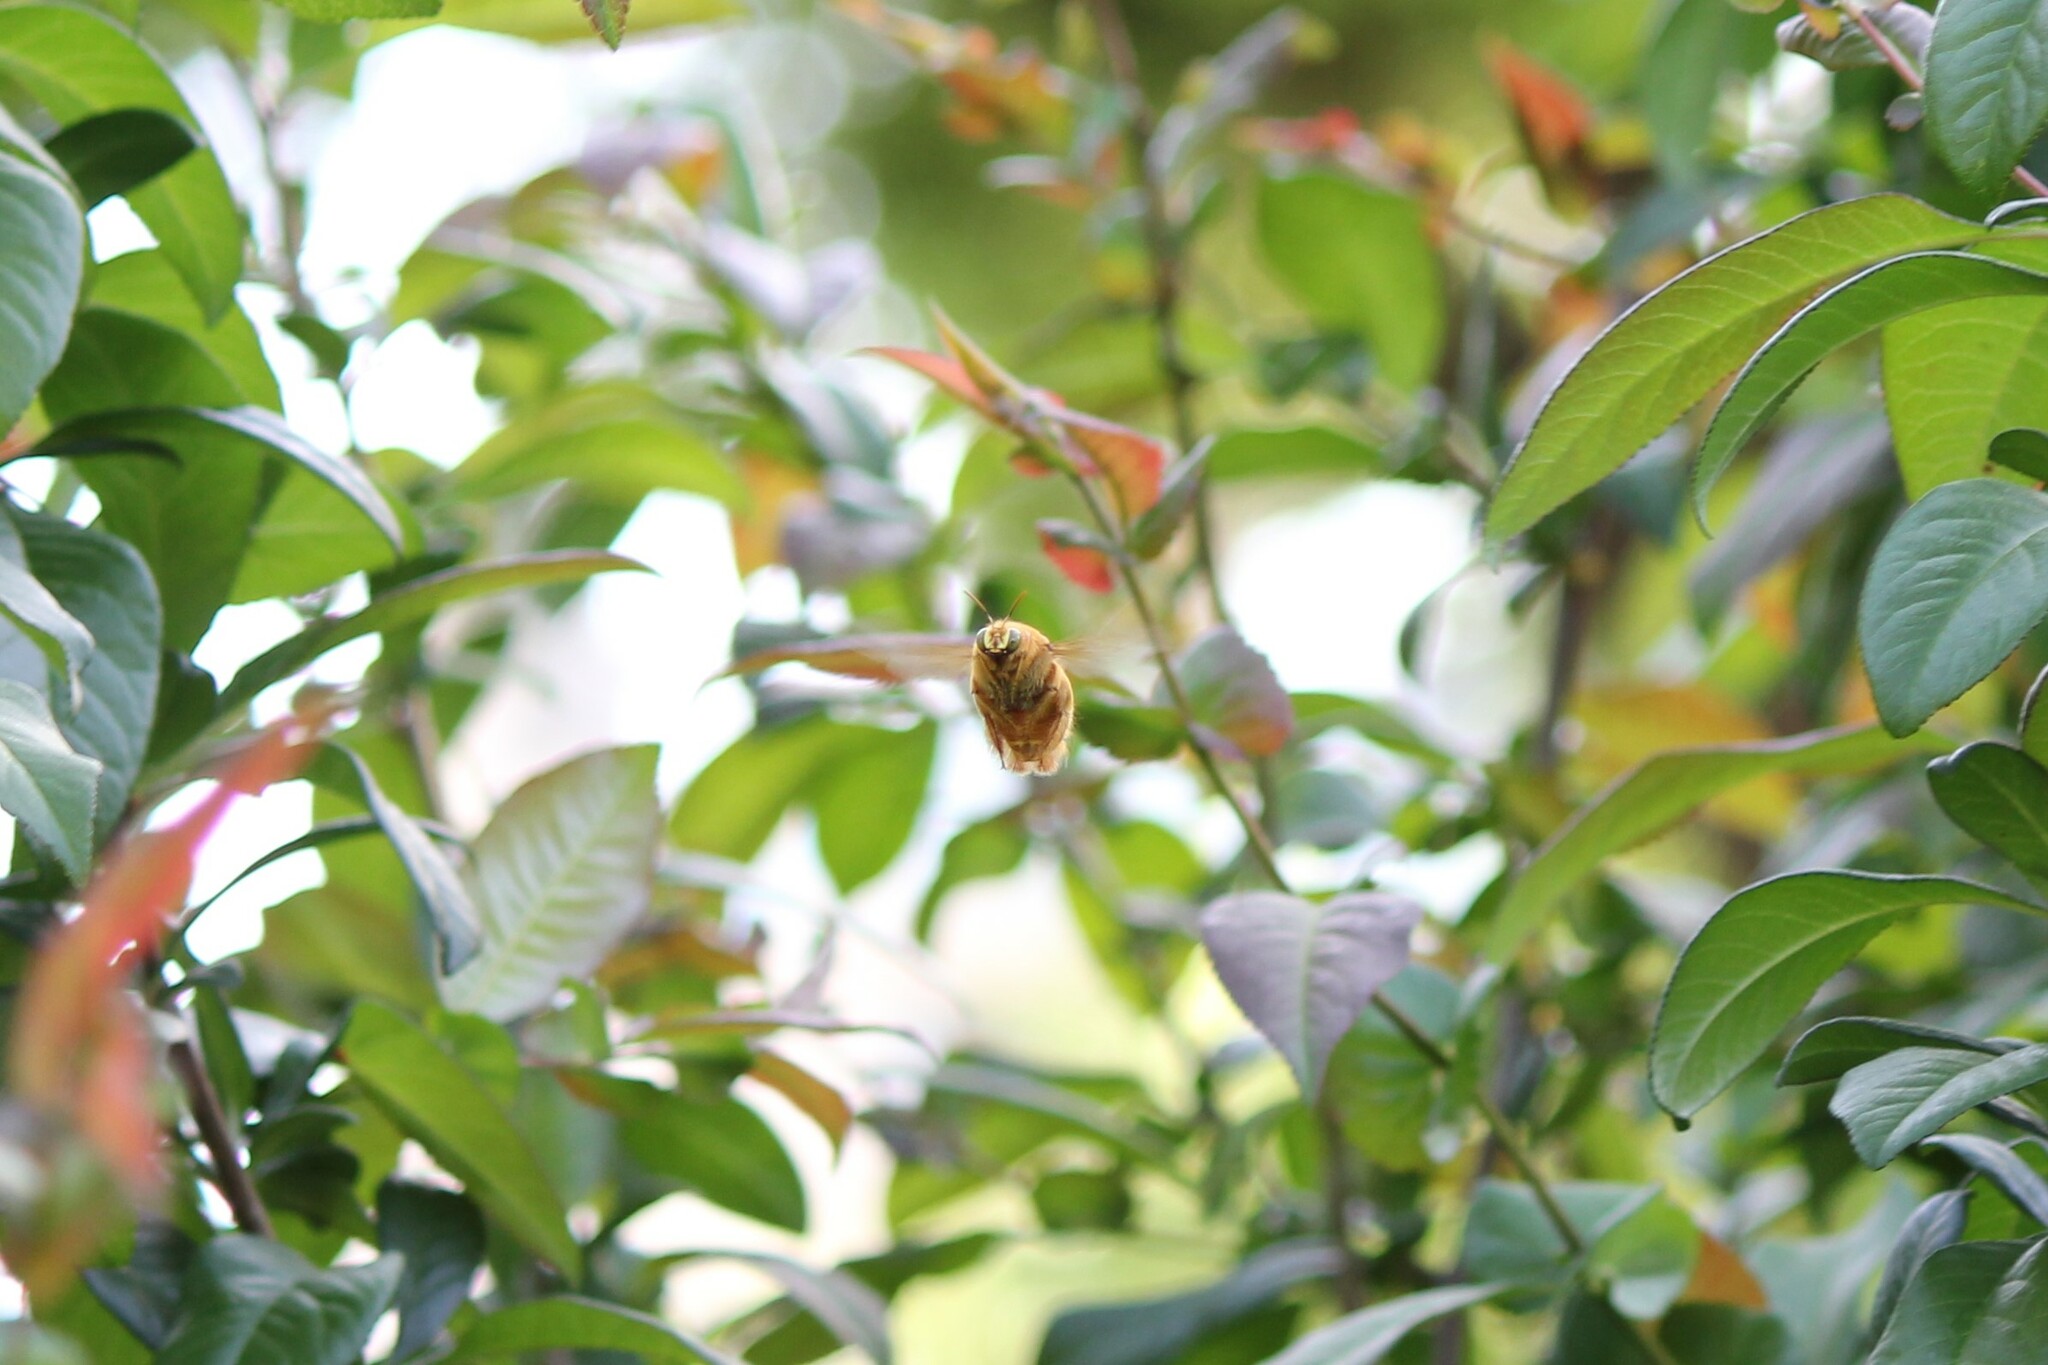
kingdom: Animalia
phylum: Arthropoda
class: Insecta
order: Hymenoptera
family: Apidae
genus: Xylocopa
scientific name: Xylocopa sonorina
